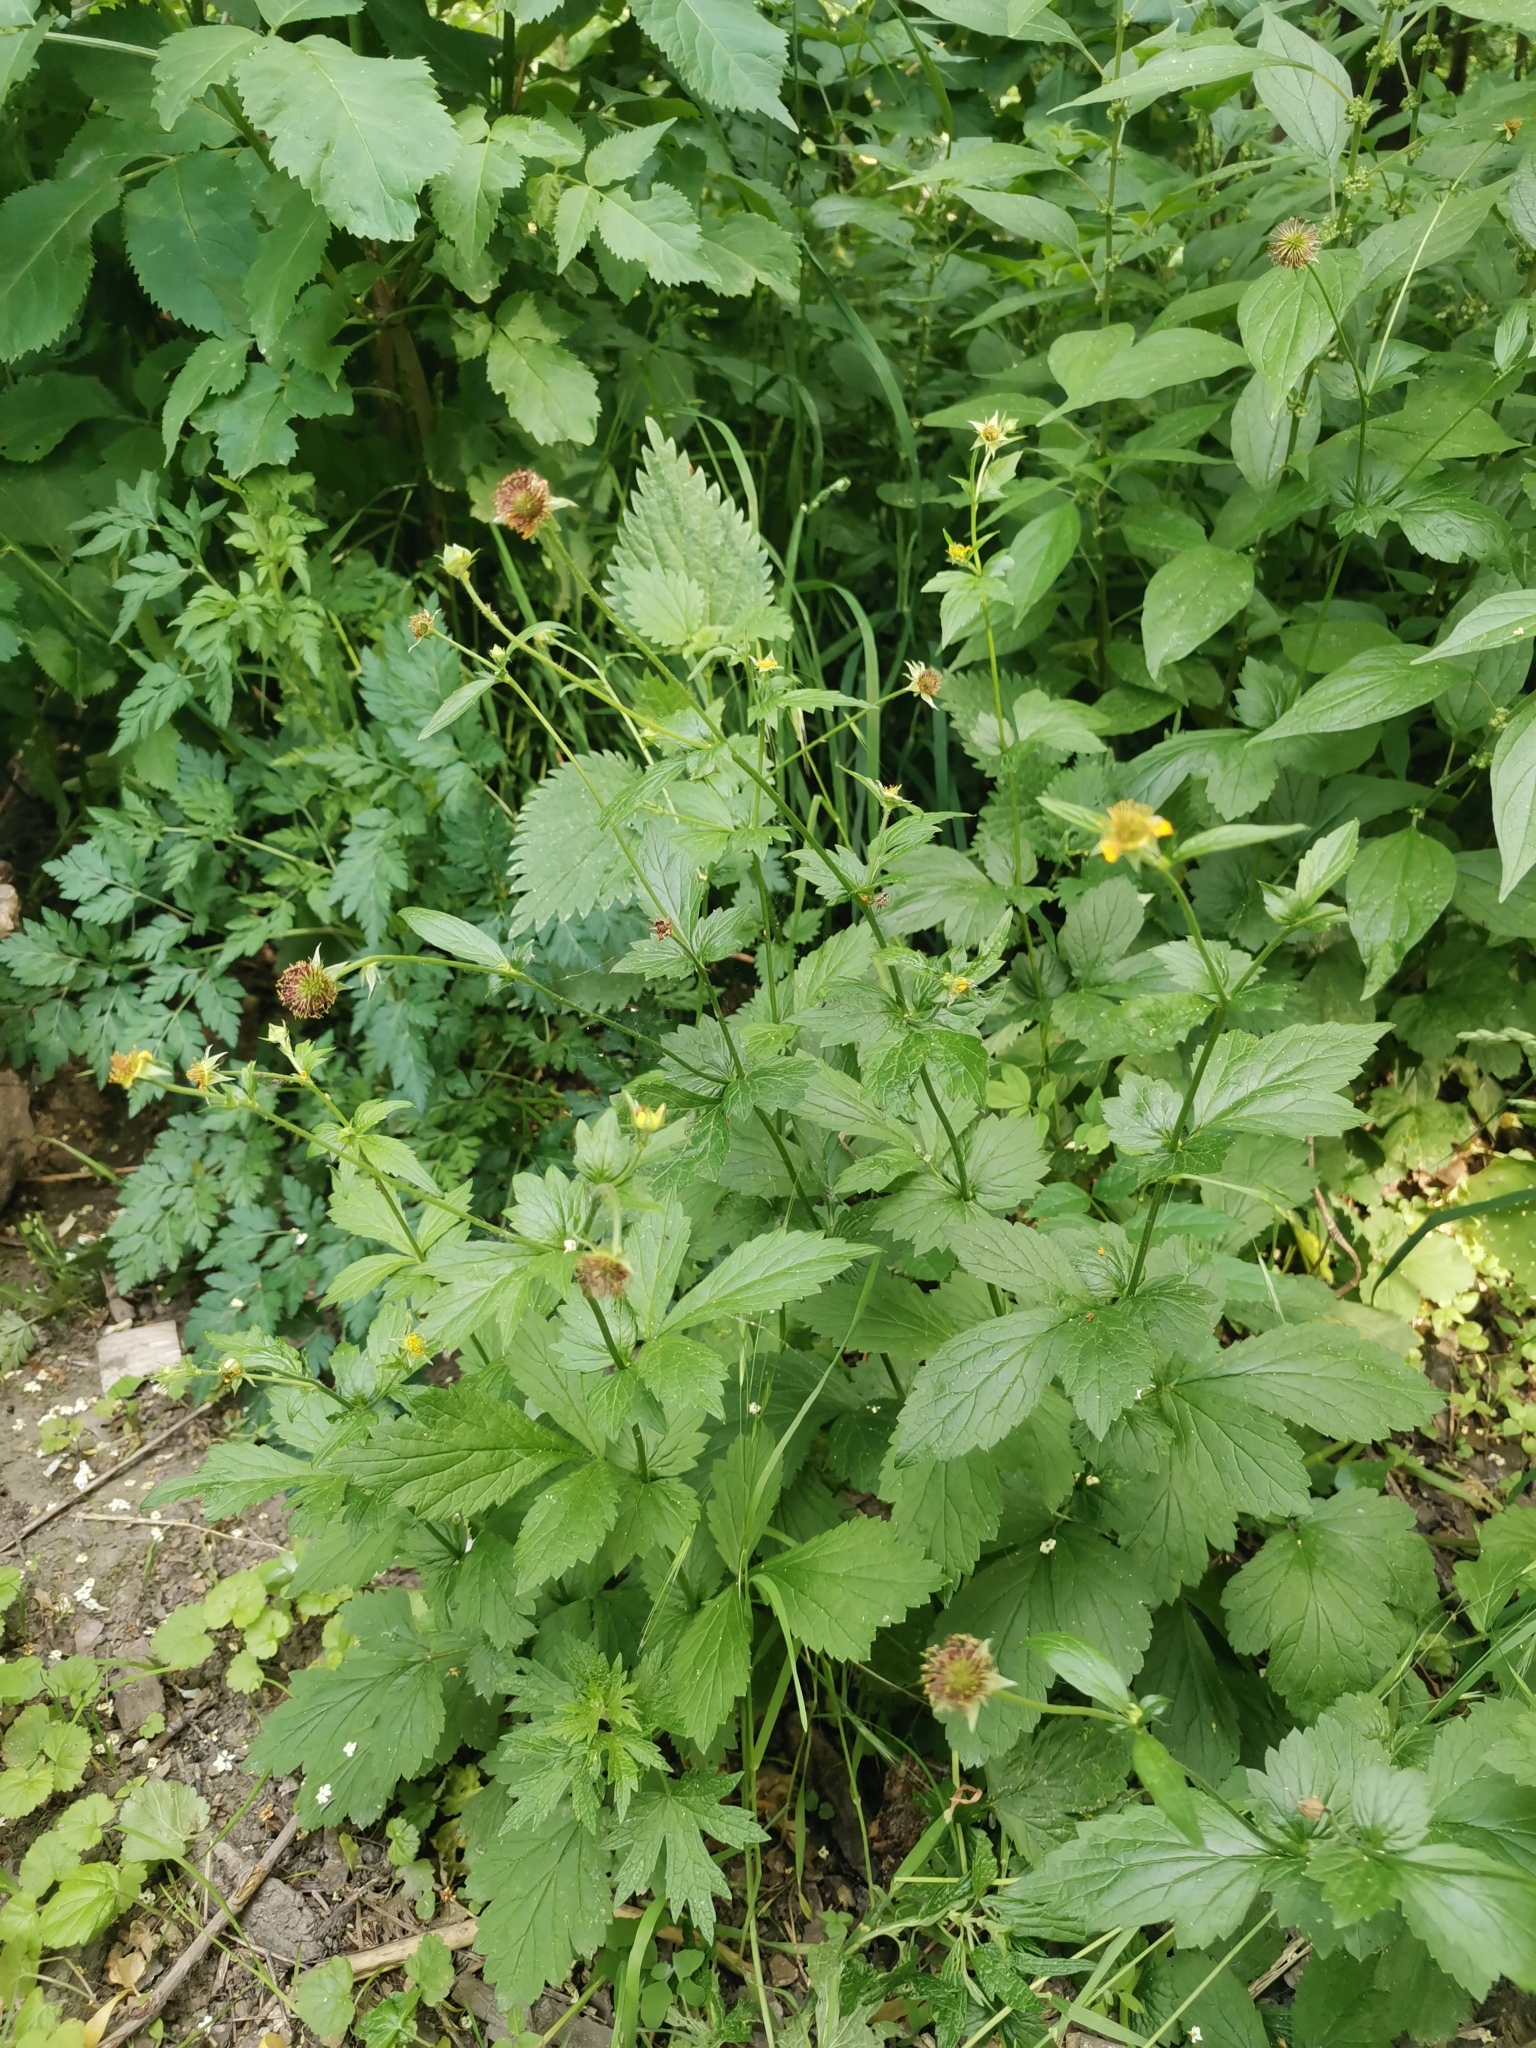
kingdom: Plantae
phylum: Tracheophyta
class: Magnoliopsida
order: Rosales
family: Rosaceae
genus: Geum
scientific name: Geum urbanum
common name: Wood avens
